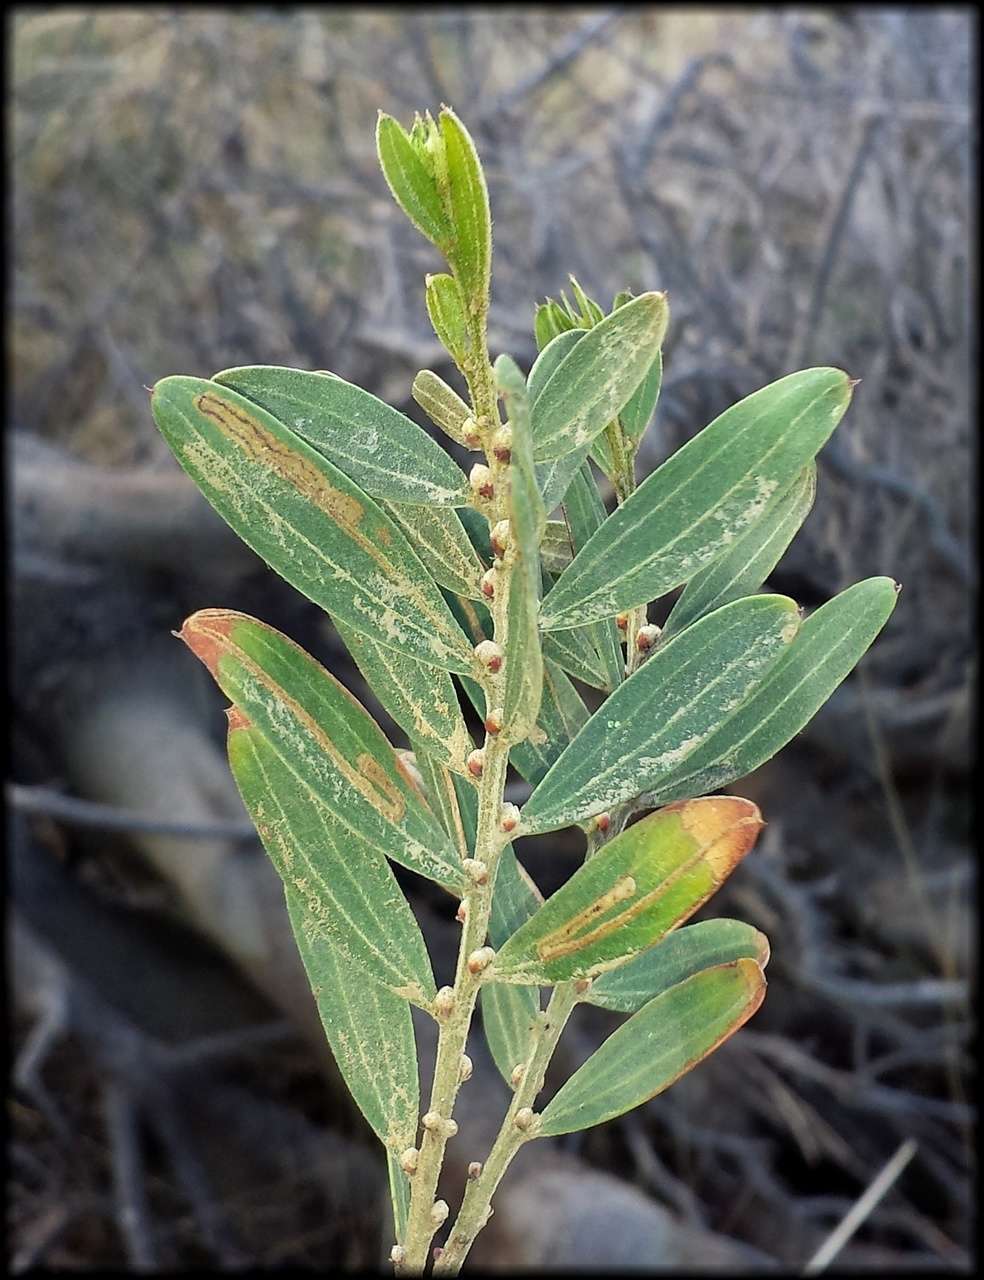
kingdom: Plantae
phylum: Tracheophyta
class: Magnoliopsida
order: Fabales
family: Fabaceae
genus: Acacia
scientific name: Acacia rostriformis
